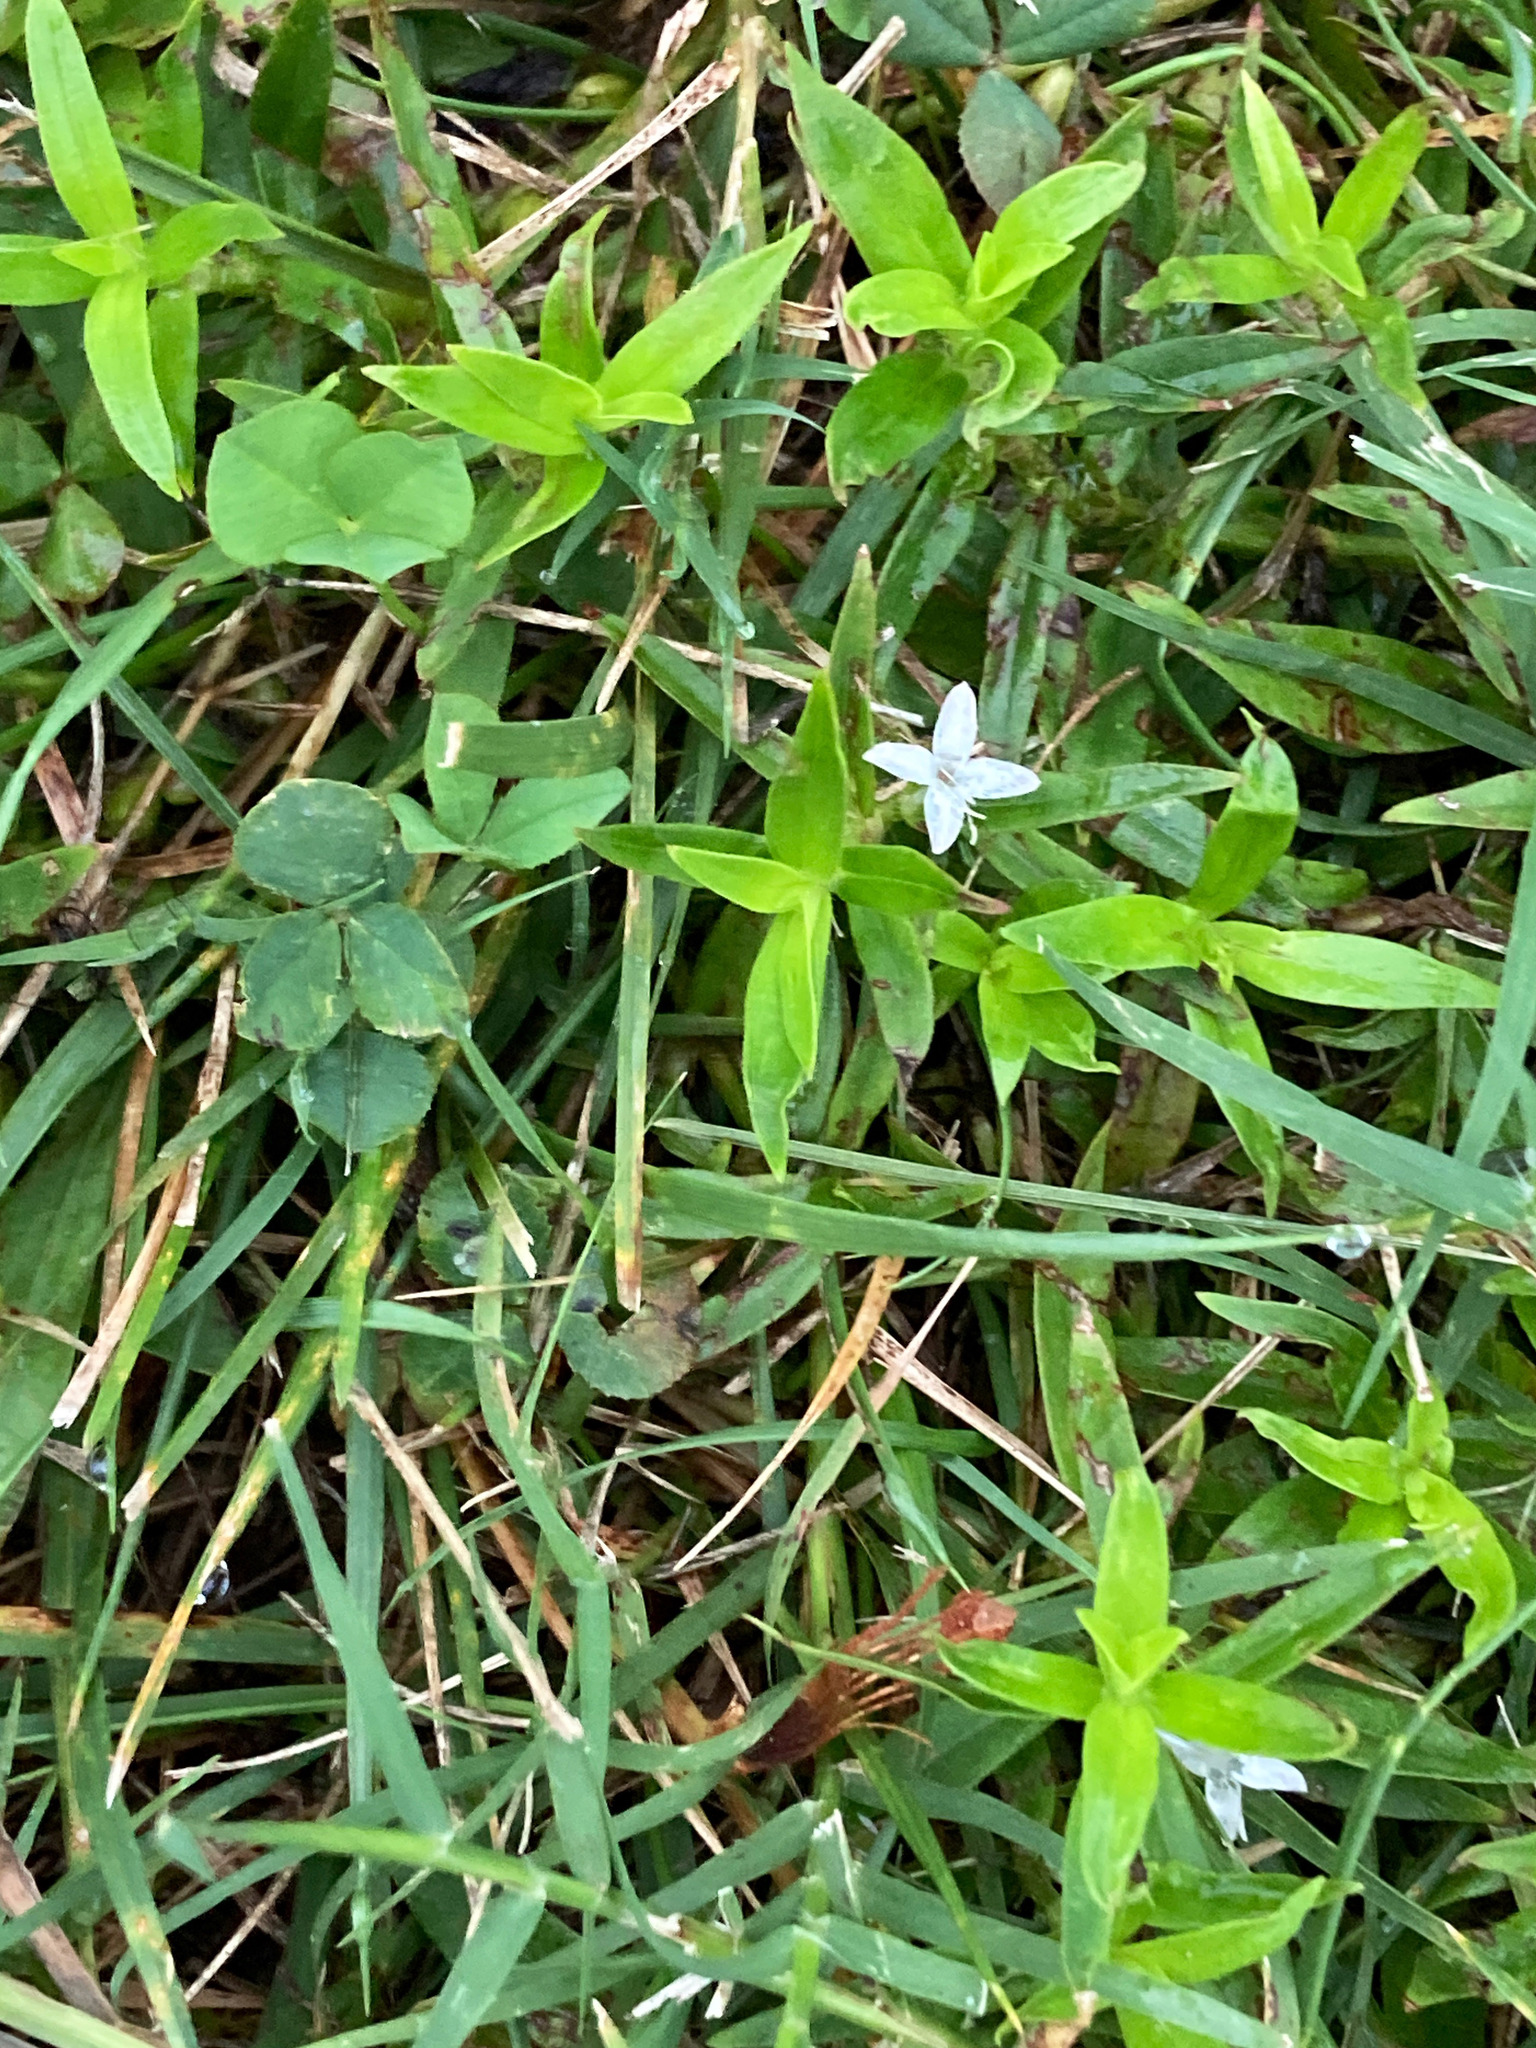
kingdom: Plantae
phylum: Tracheophyta
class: Magnoliopsida
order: Gentianales
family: Rubiaceae
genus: Diodia
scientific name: Diodia virginiana
